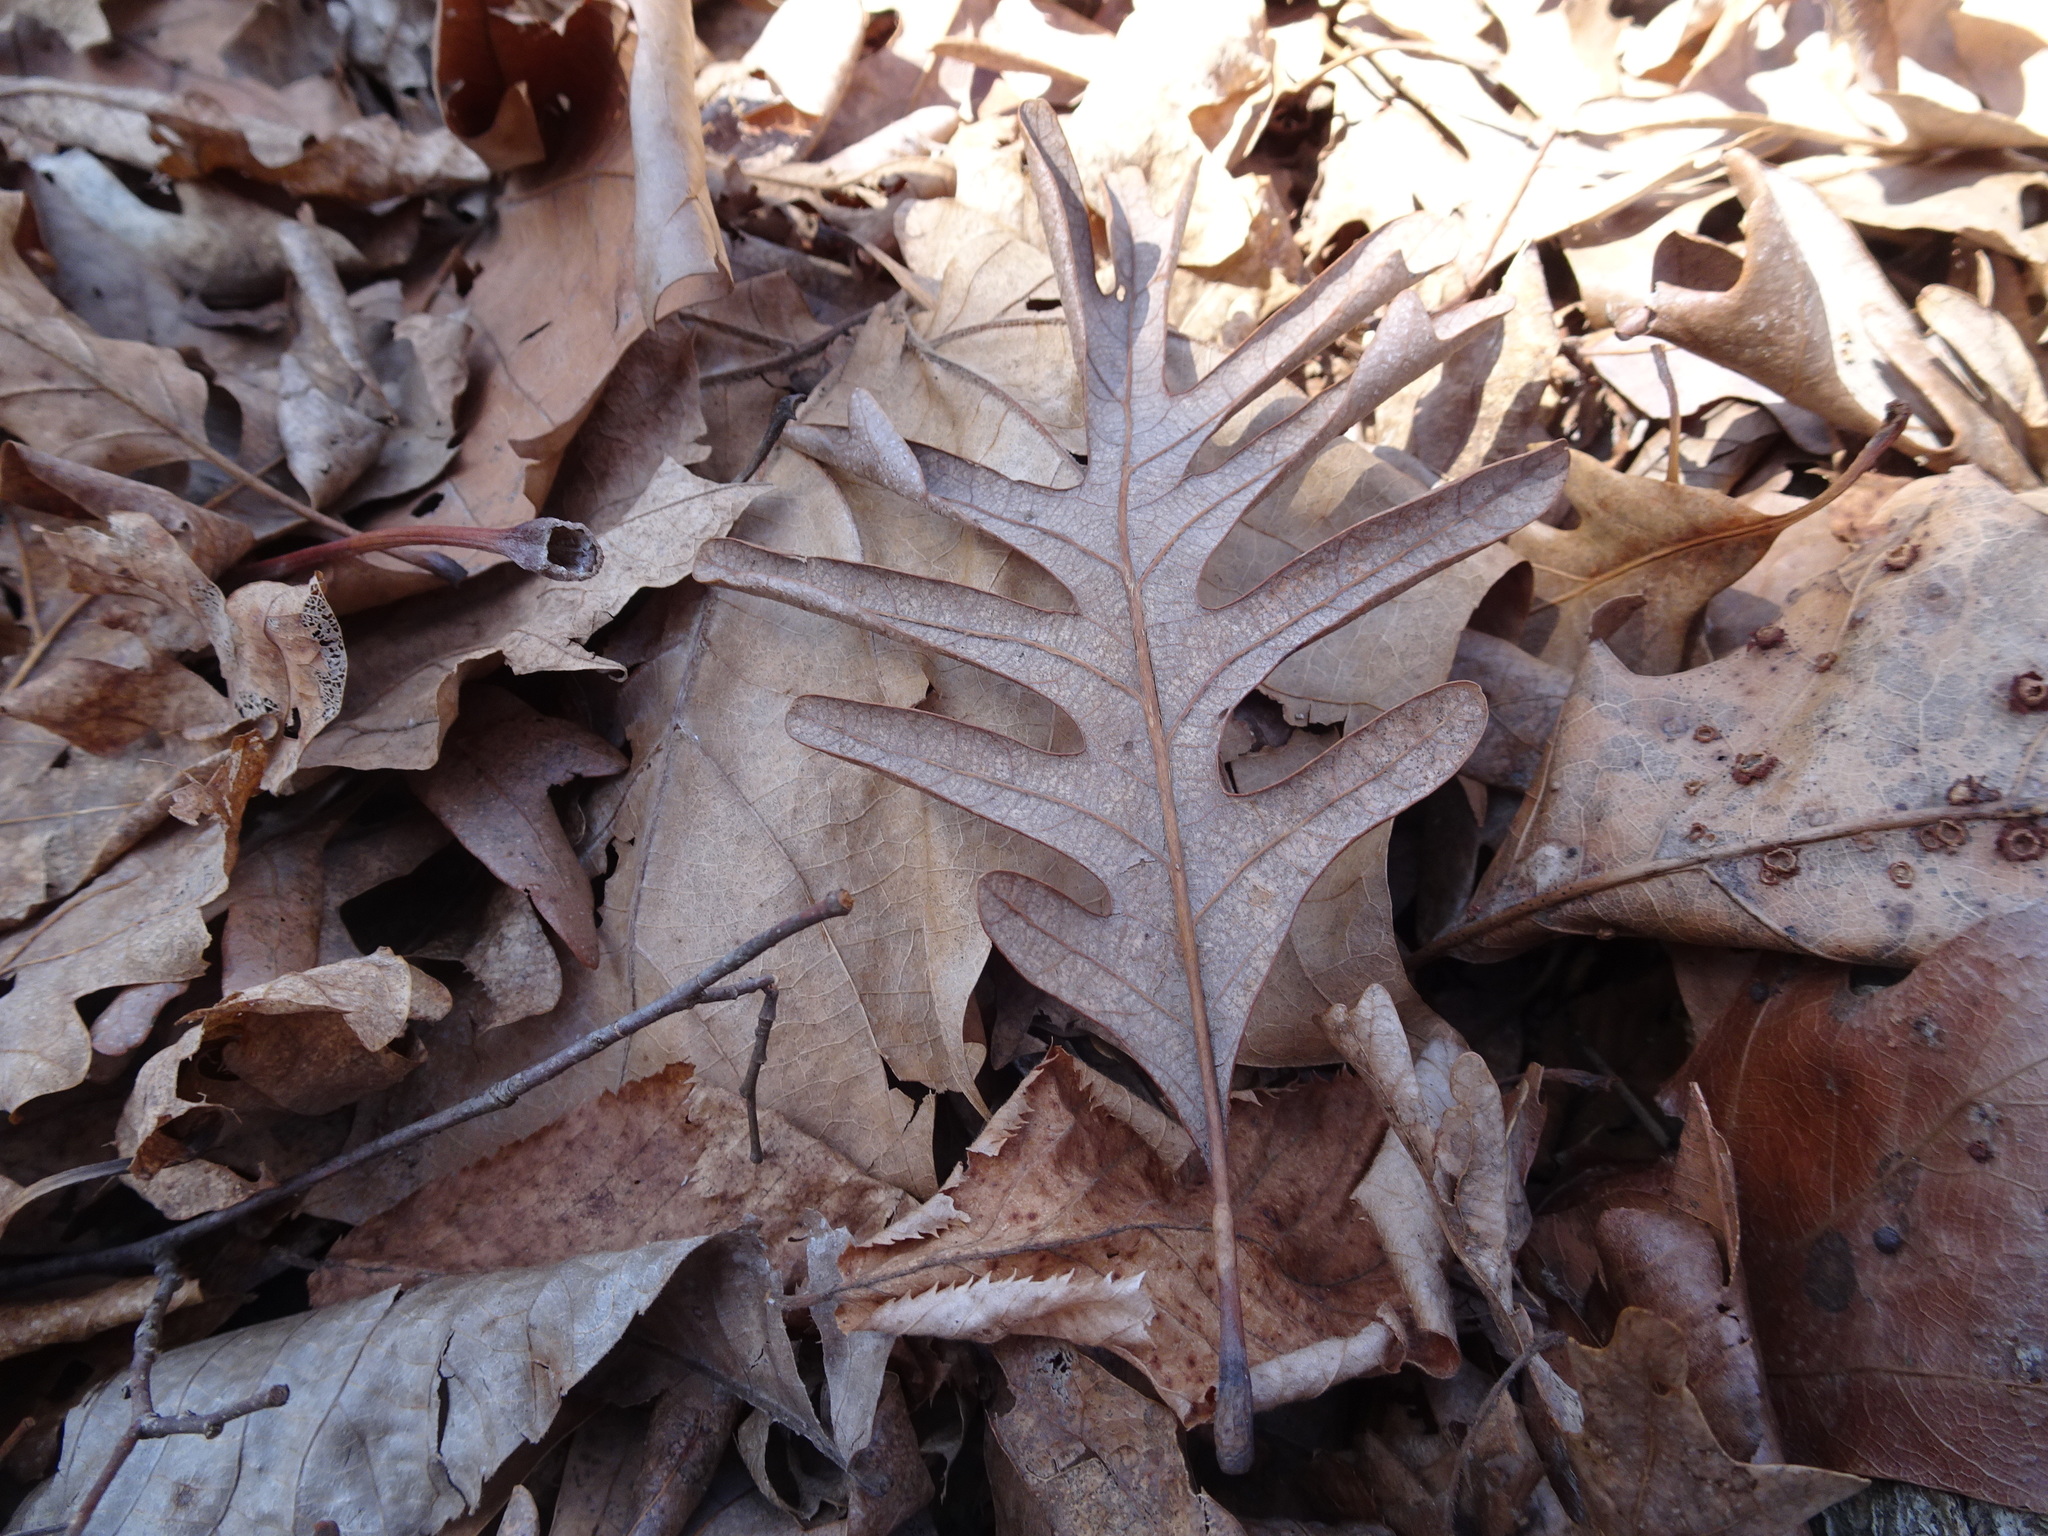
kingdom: Plantae
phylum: Tracheophyta
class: Magnoliopsida
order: Fagales
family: Fagaceae
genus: Quercus
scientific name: Quercus alba
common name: White oak
